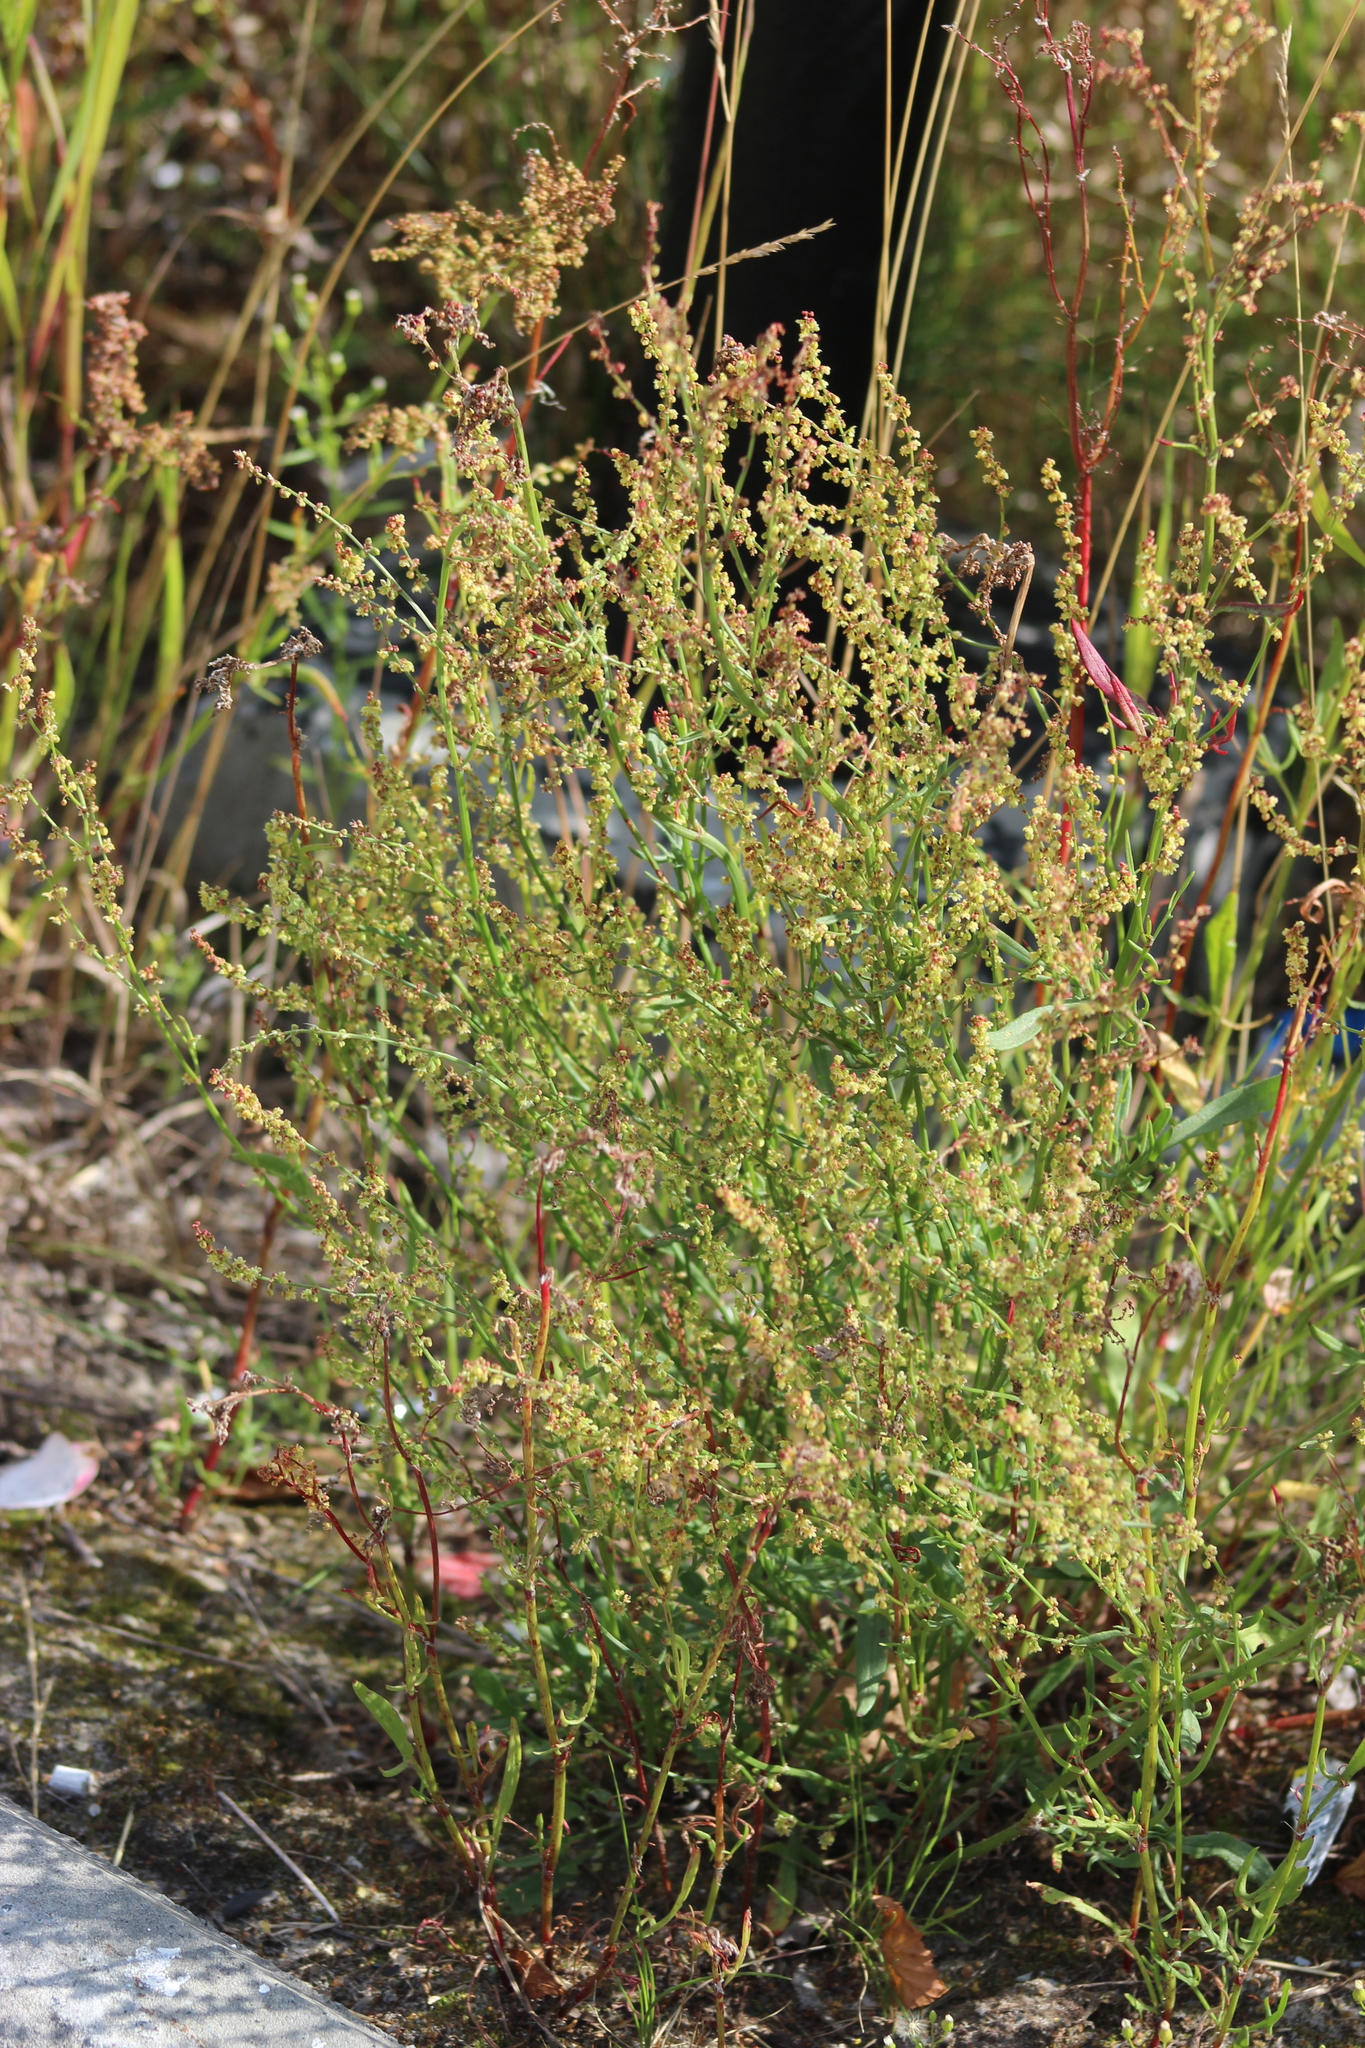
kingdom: Plantae
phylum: Tracheophyta
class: Magnoliopsida
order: Caryophyllales
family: Polygonaceae
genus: Rumex
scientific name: Rumex acetosella
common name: Common sheep sorrel
